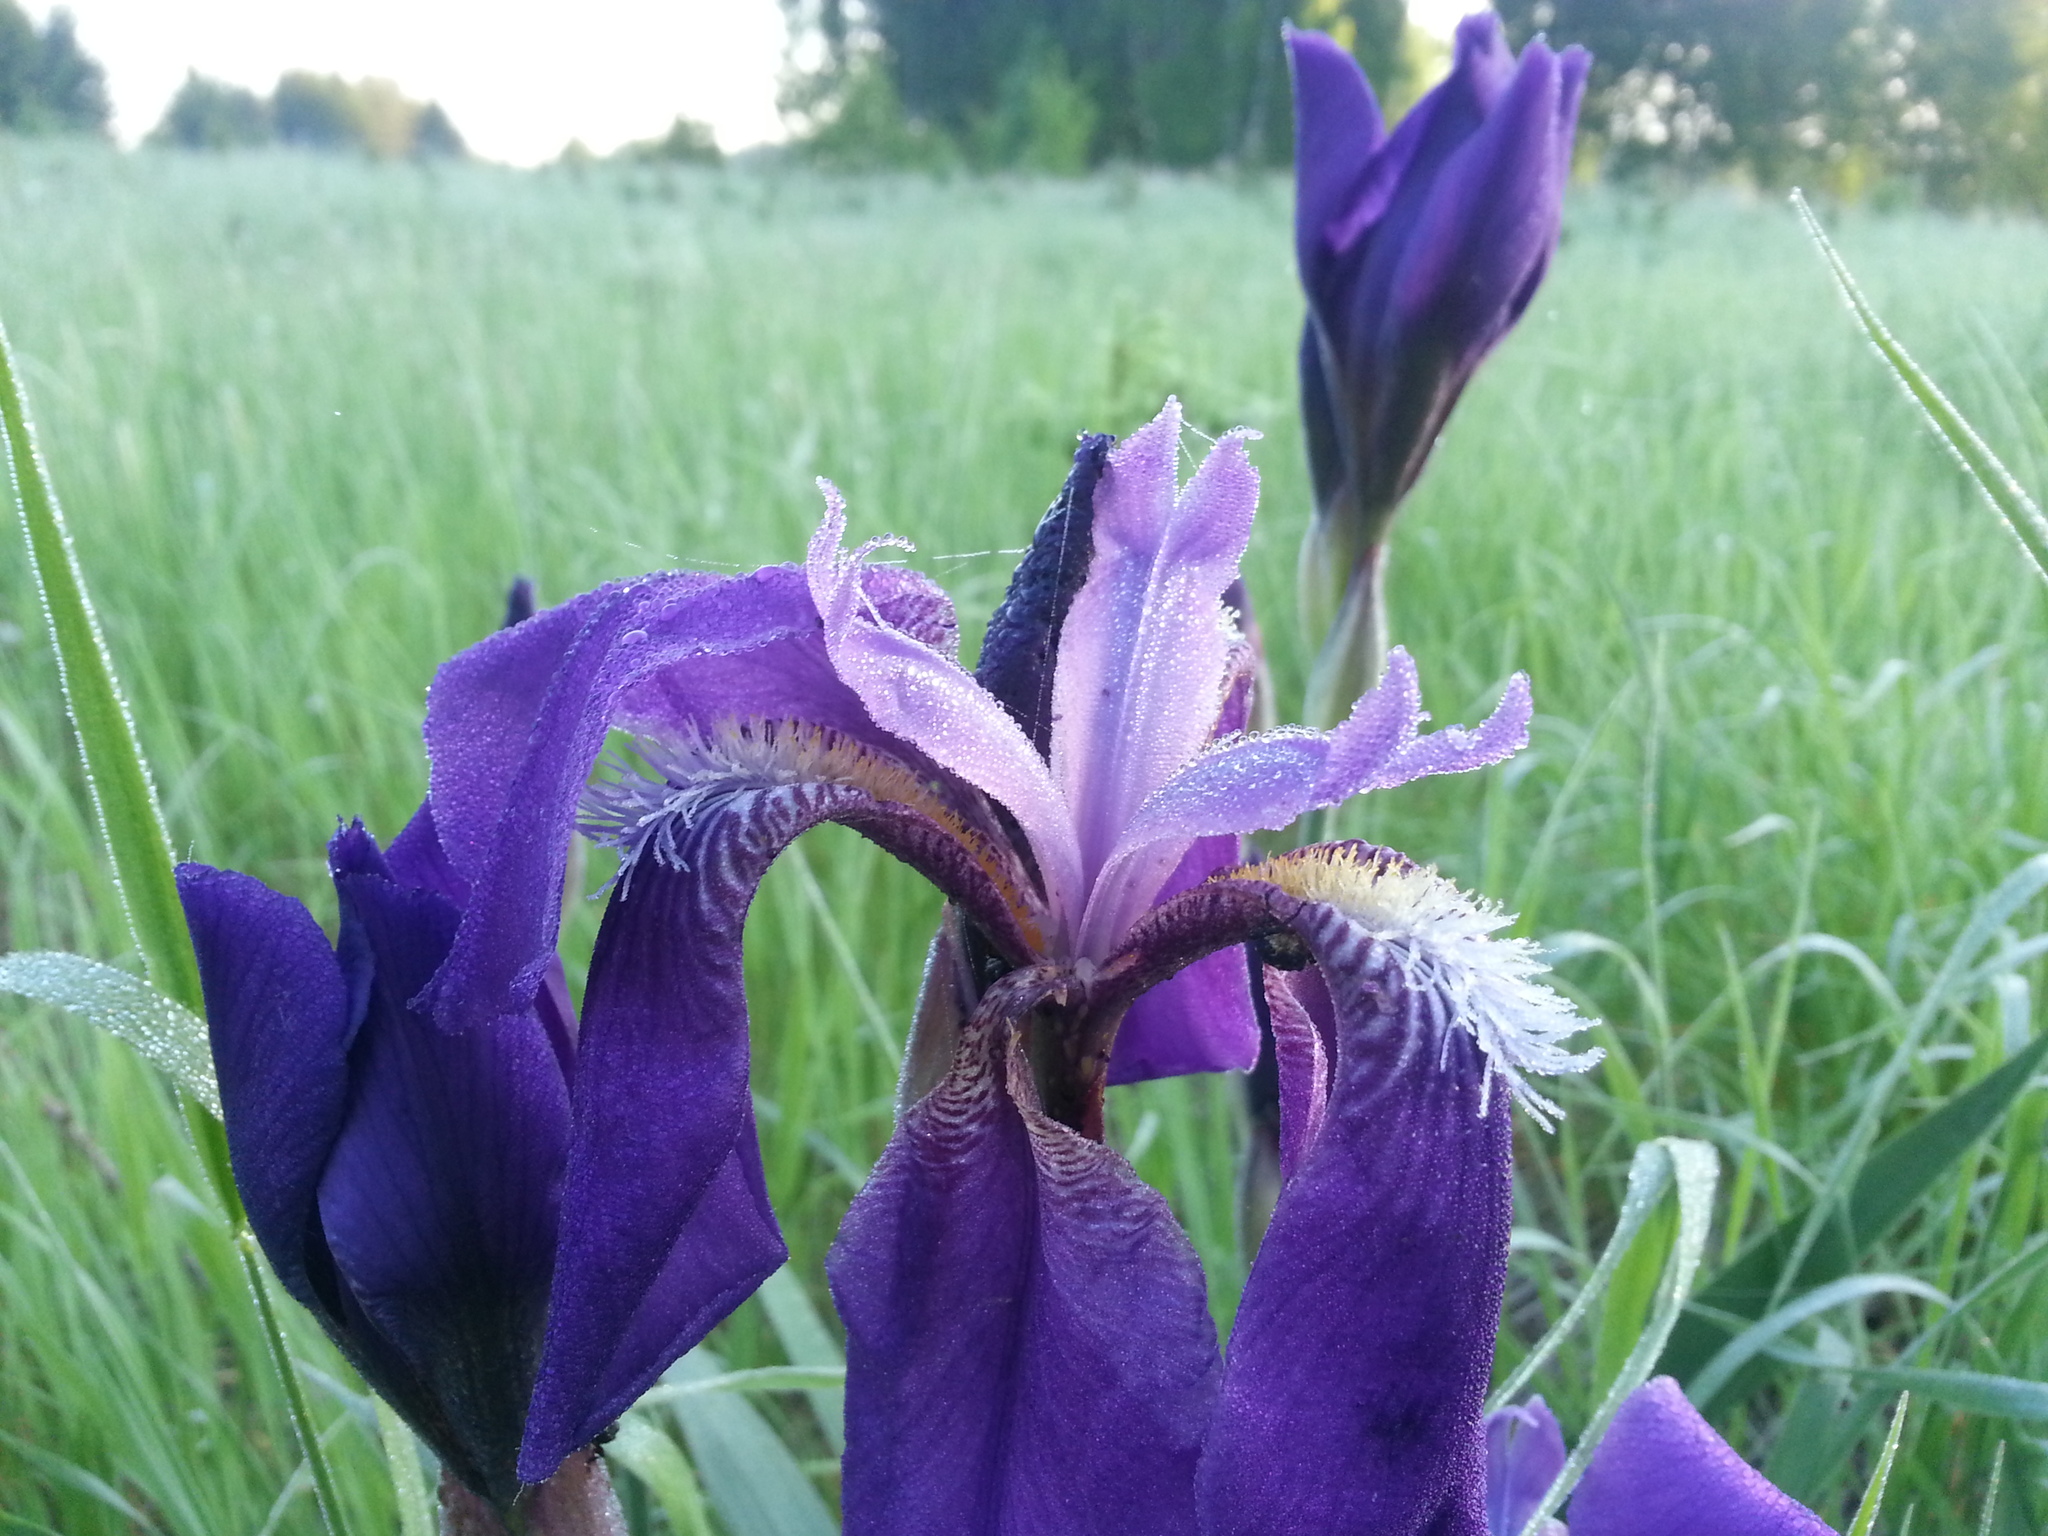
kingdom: Plantae
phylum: Tracheophyta
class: Liliopsida
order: Asparagales
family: Iridaceae
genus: Iris
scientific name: Iris germanica
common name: German iris
